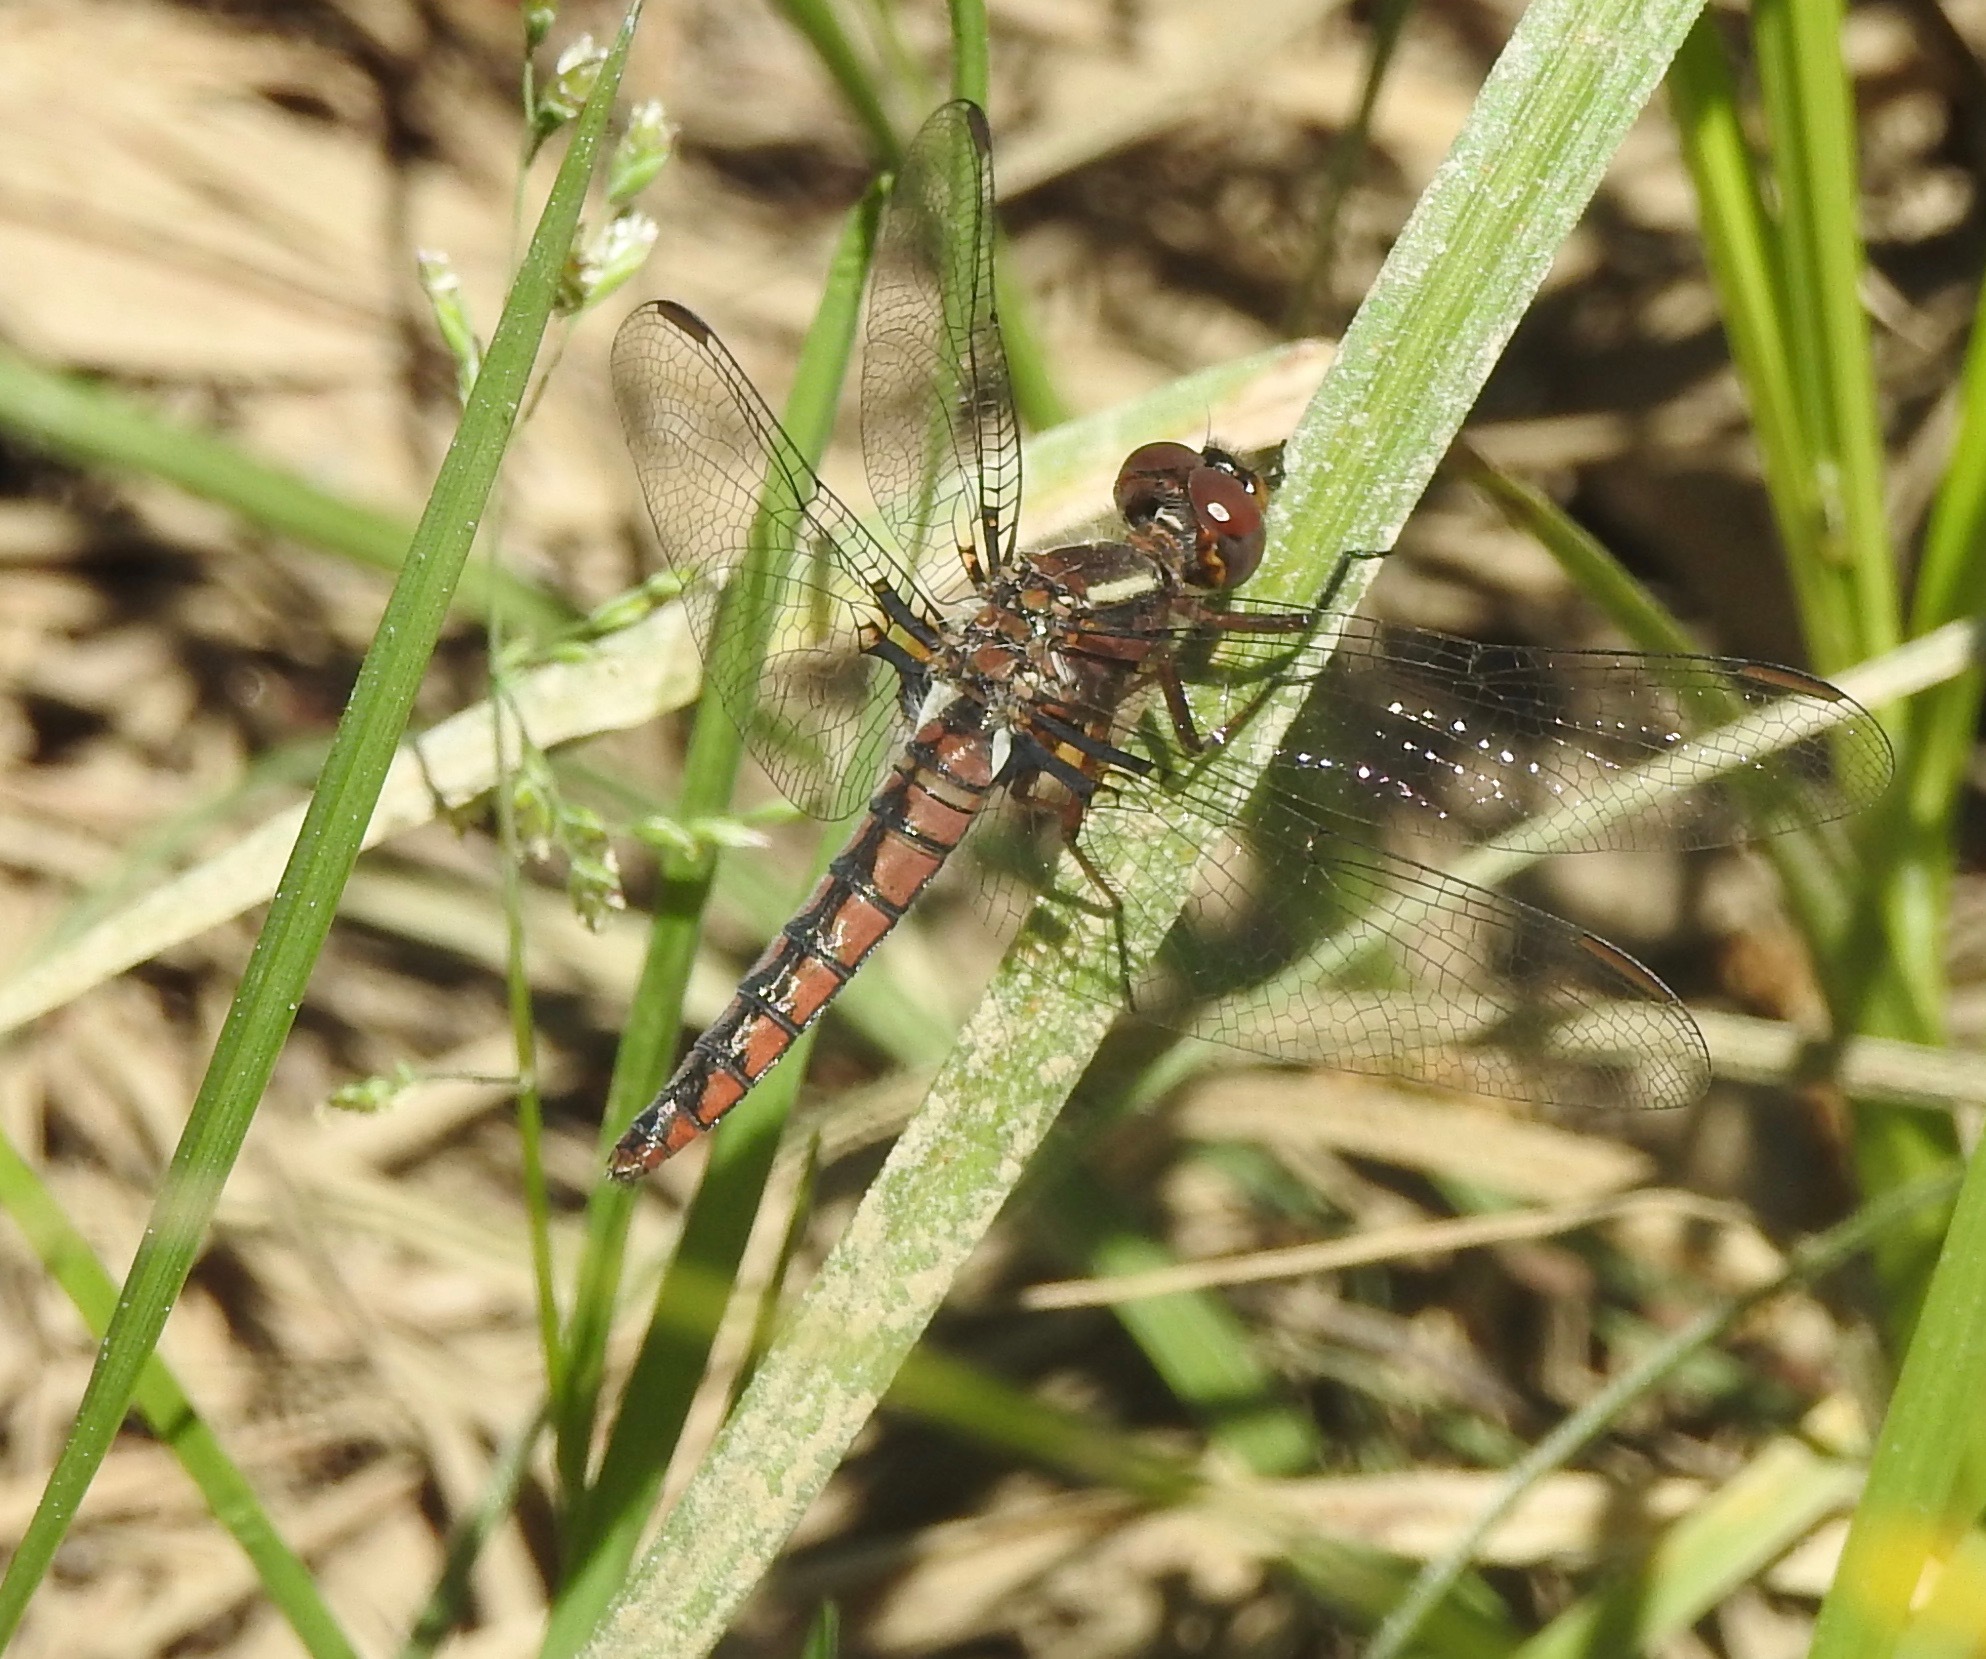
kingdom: Animalia
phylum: Arthropoda
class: Insecta
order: Odonata
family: Libellulidae
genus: Ladona
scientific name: Ladona deplanata
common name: Blue corporal
